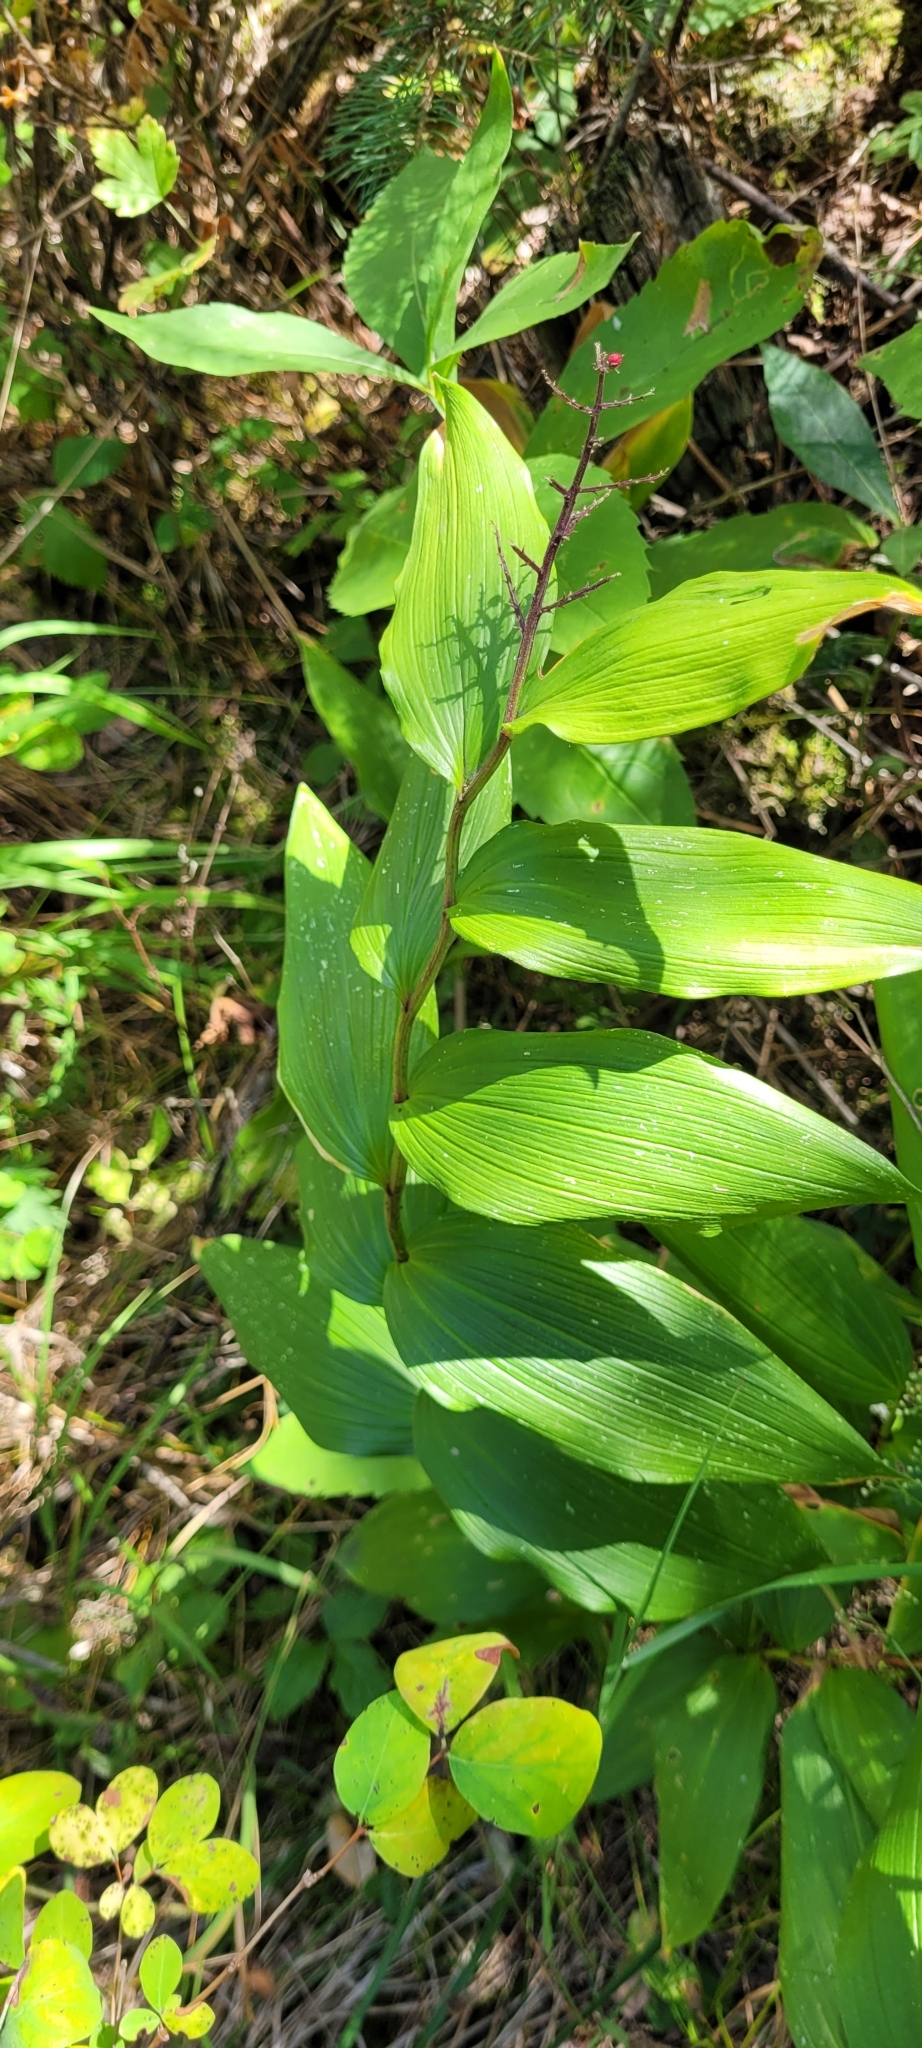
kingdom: Plantae
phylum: Tracheophyta
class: Liliopsida
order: Asparagales
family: Asparagaceae
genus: Maianthemum
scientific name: Maianthemum racemosum
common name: False spikenard
